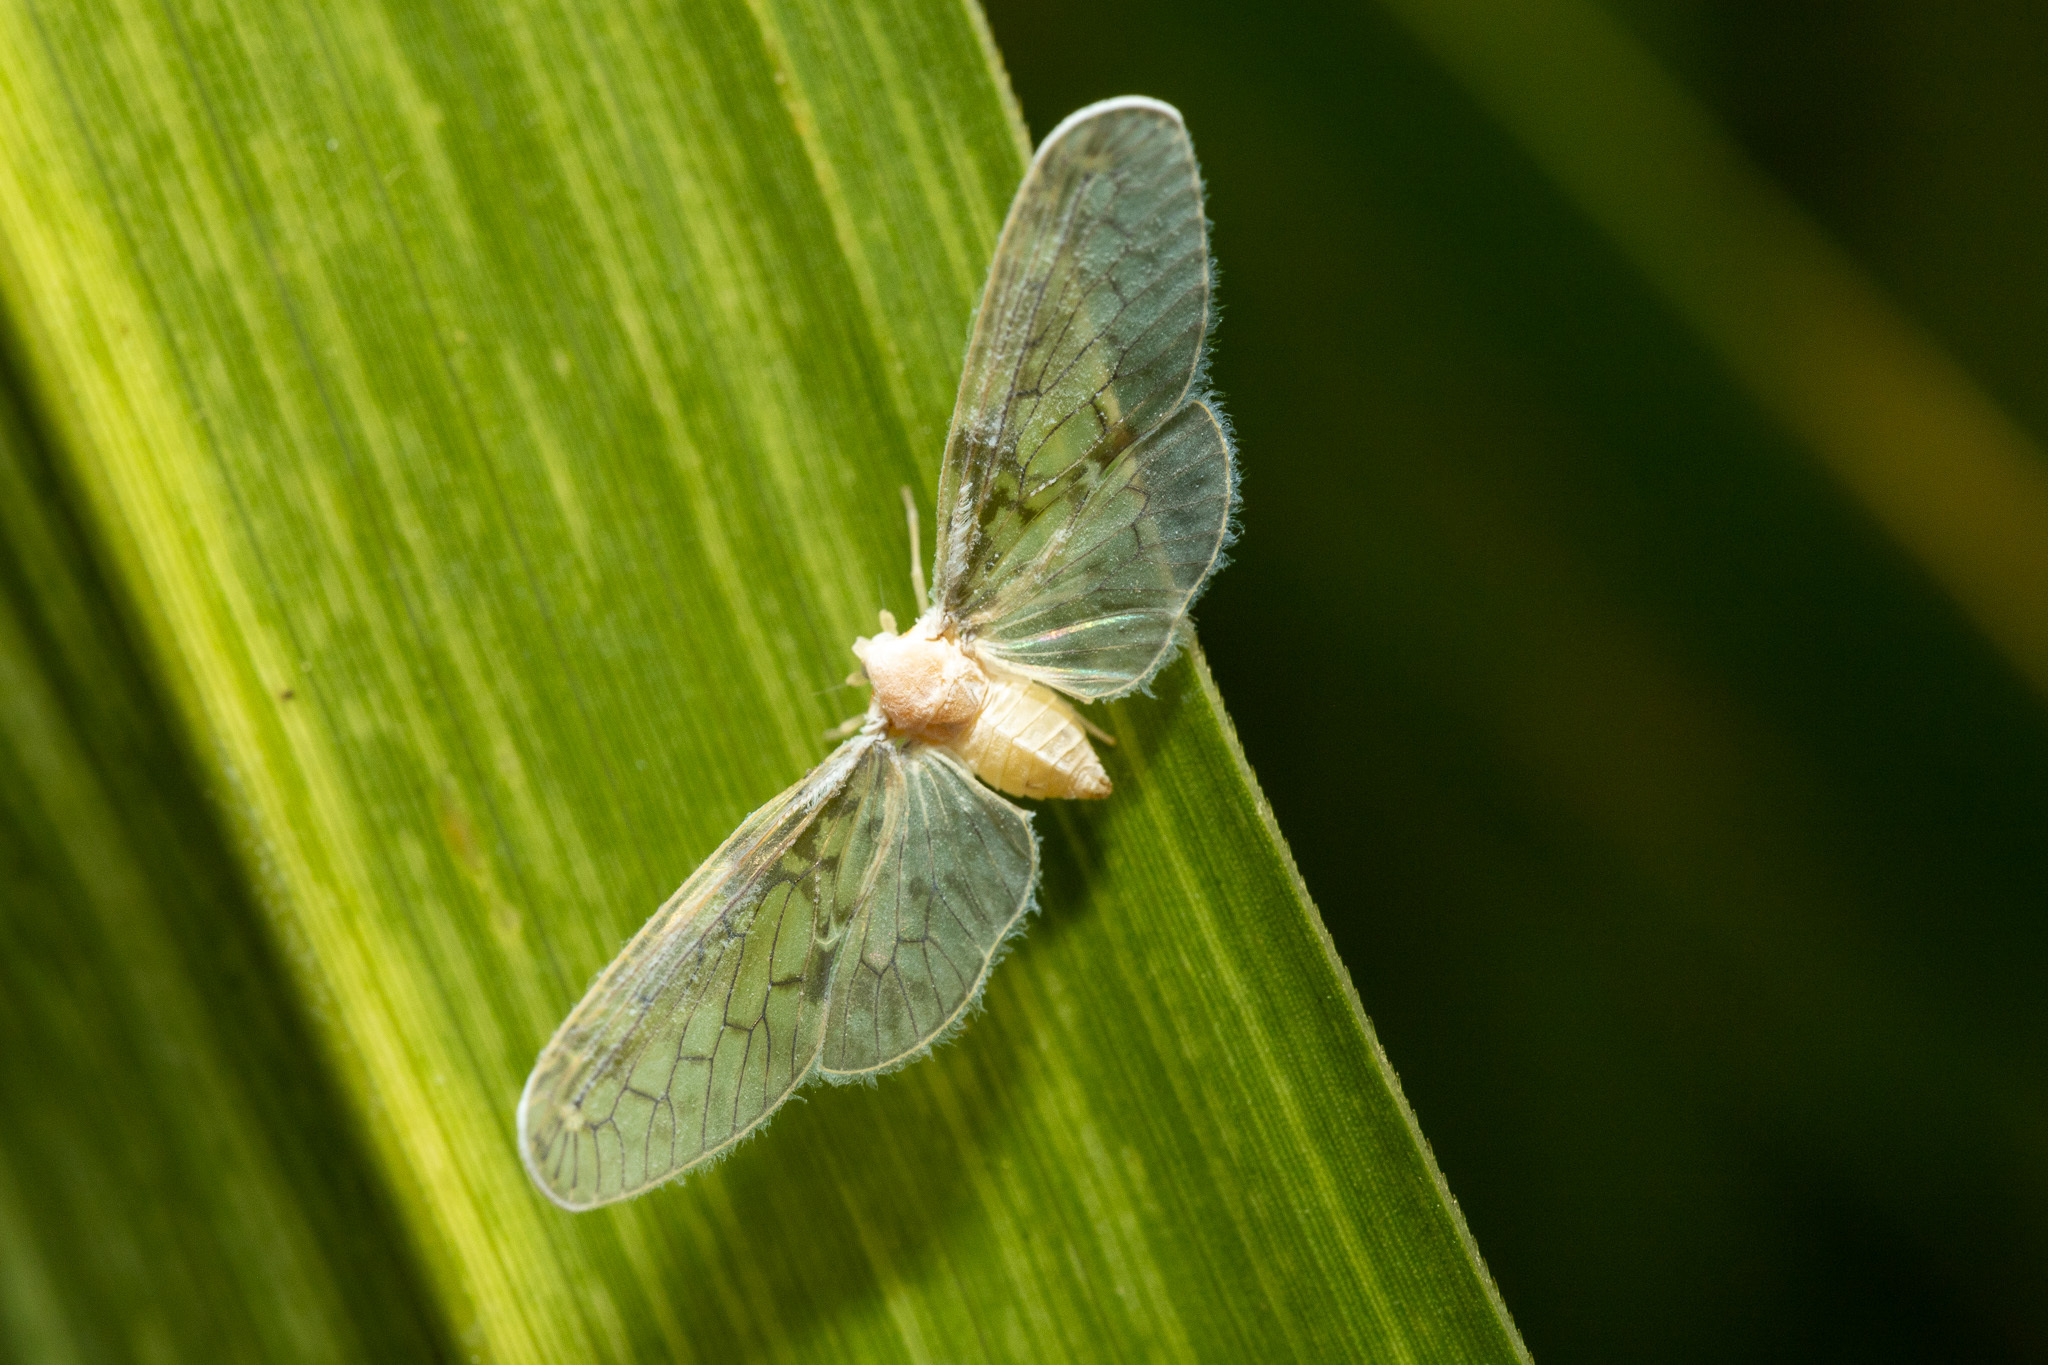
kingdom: Animalia
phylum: Arthropoda
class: Insecta
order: Hemiptera
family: Derbidae
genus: Paramysidia
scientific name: Paramysidia mississippiensis
